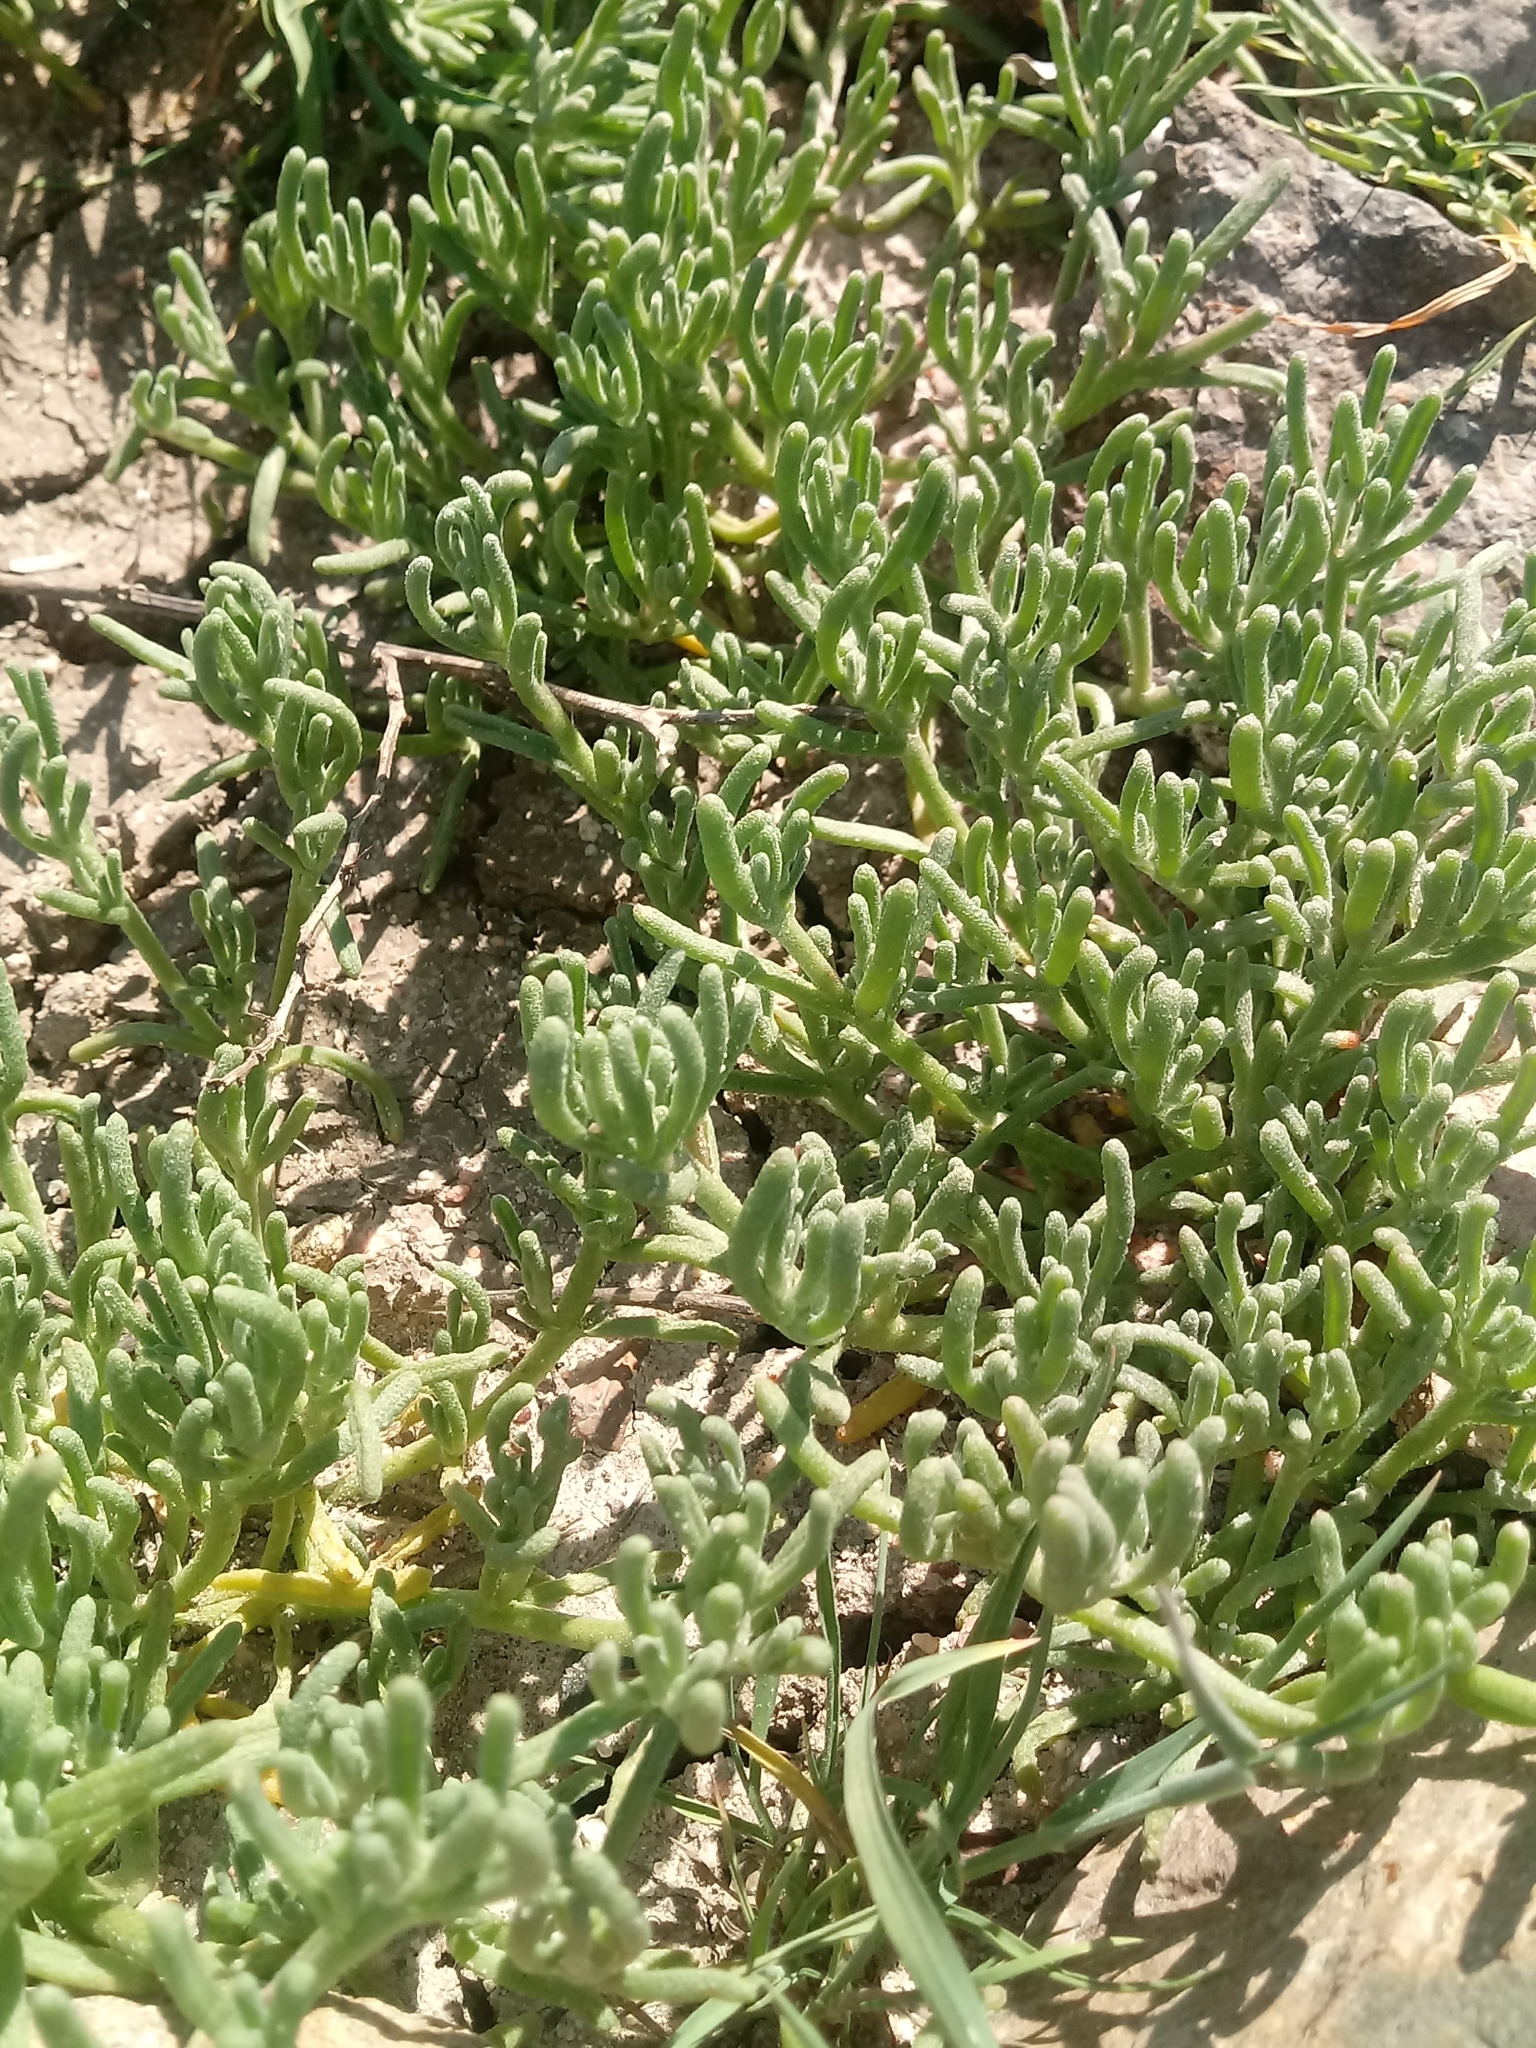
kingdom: Plantae
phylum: Tracheophyta
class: Magnoliopsida
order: Caryophyllales
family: Aizoaceae
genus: Mesembryanthemum
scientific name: Mesembryanthemum nodiflorum
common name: Slenderleaf iceplant
